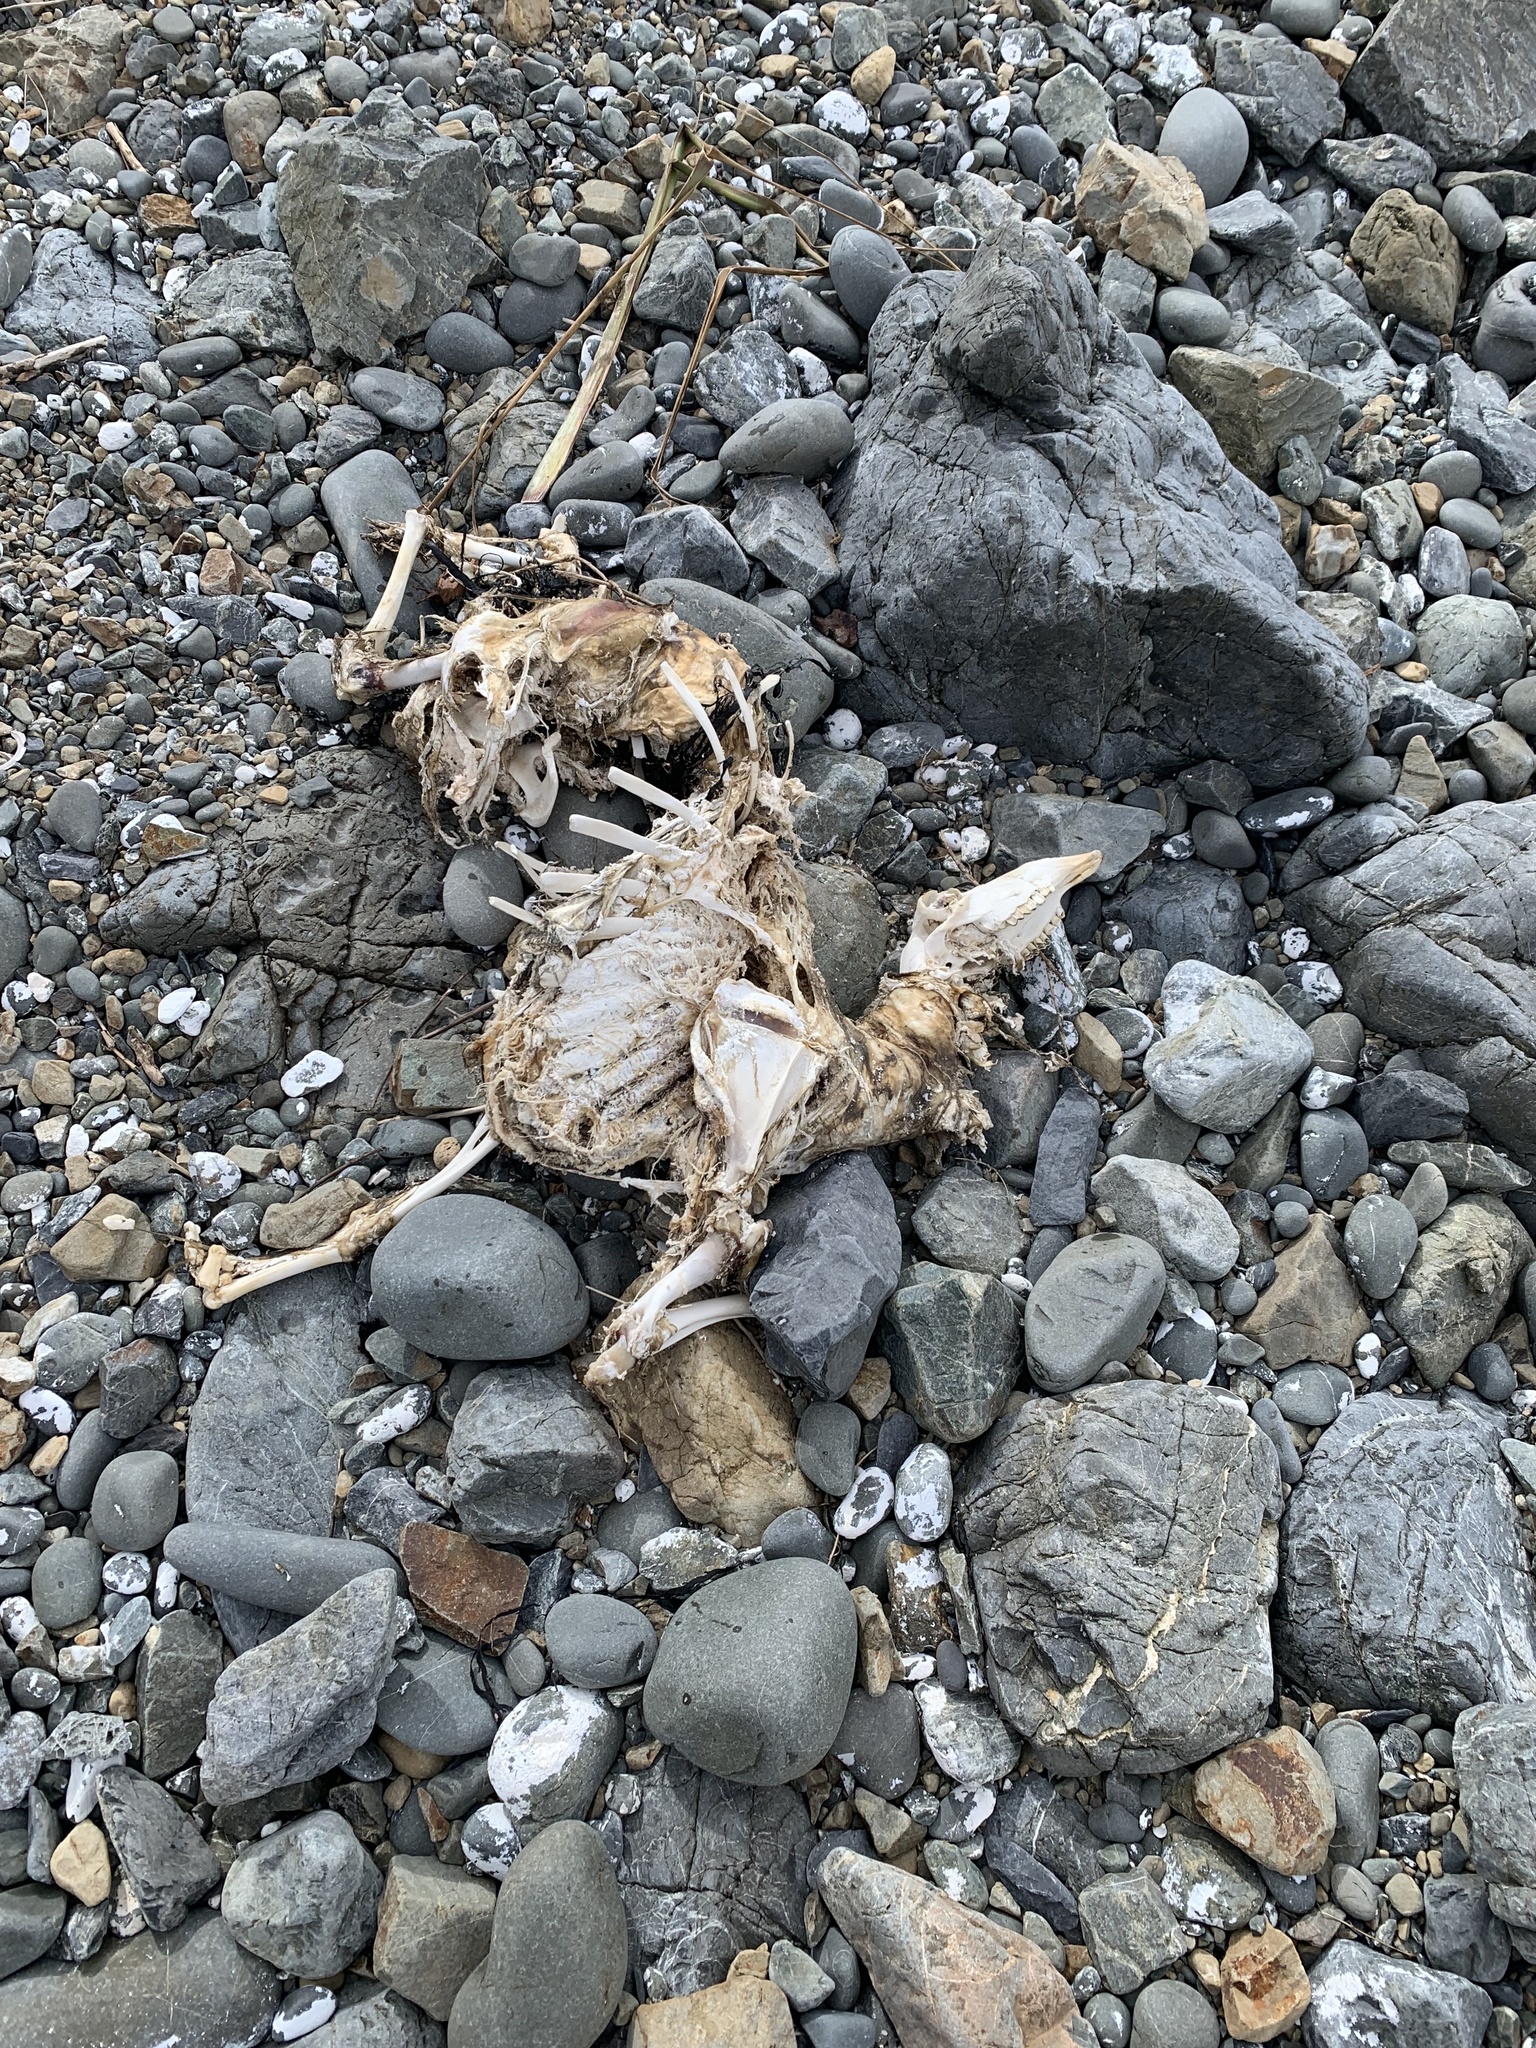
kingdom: Animalia
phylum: Chordata
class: Mammalia
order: Artiodactyla
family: Bovidae
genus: Ovis
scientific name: Ovis aries
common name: Domestic sheep
